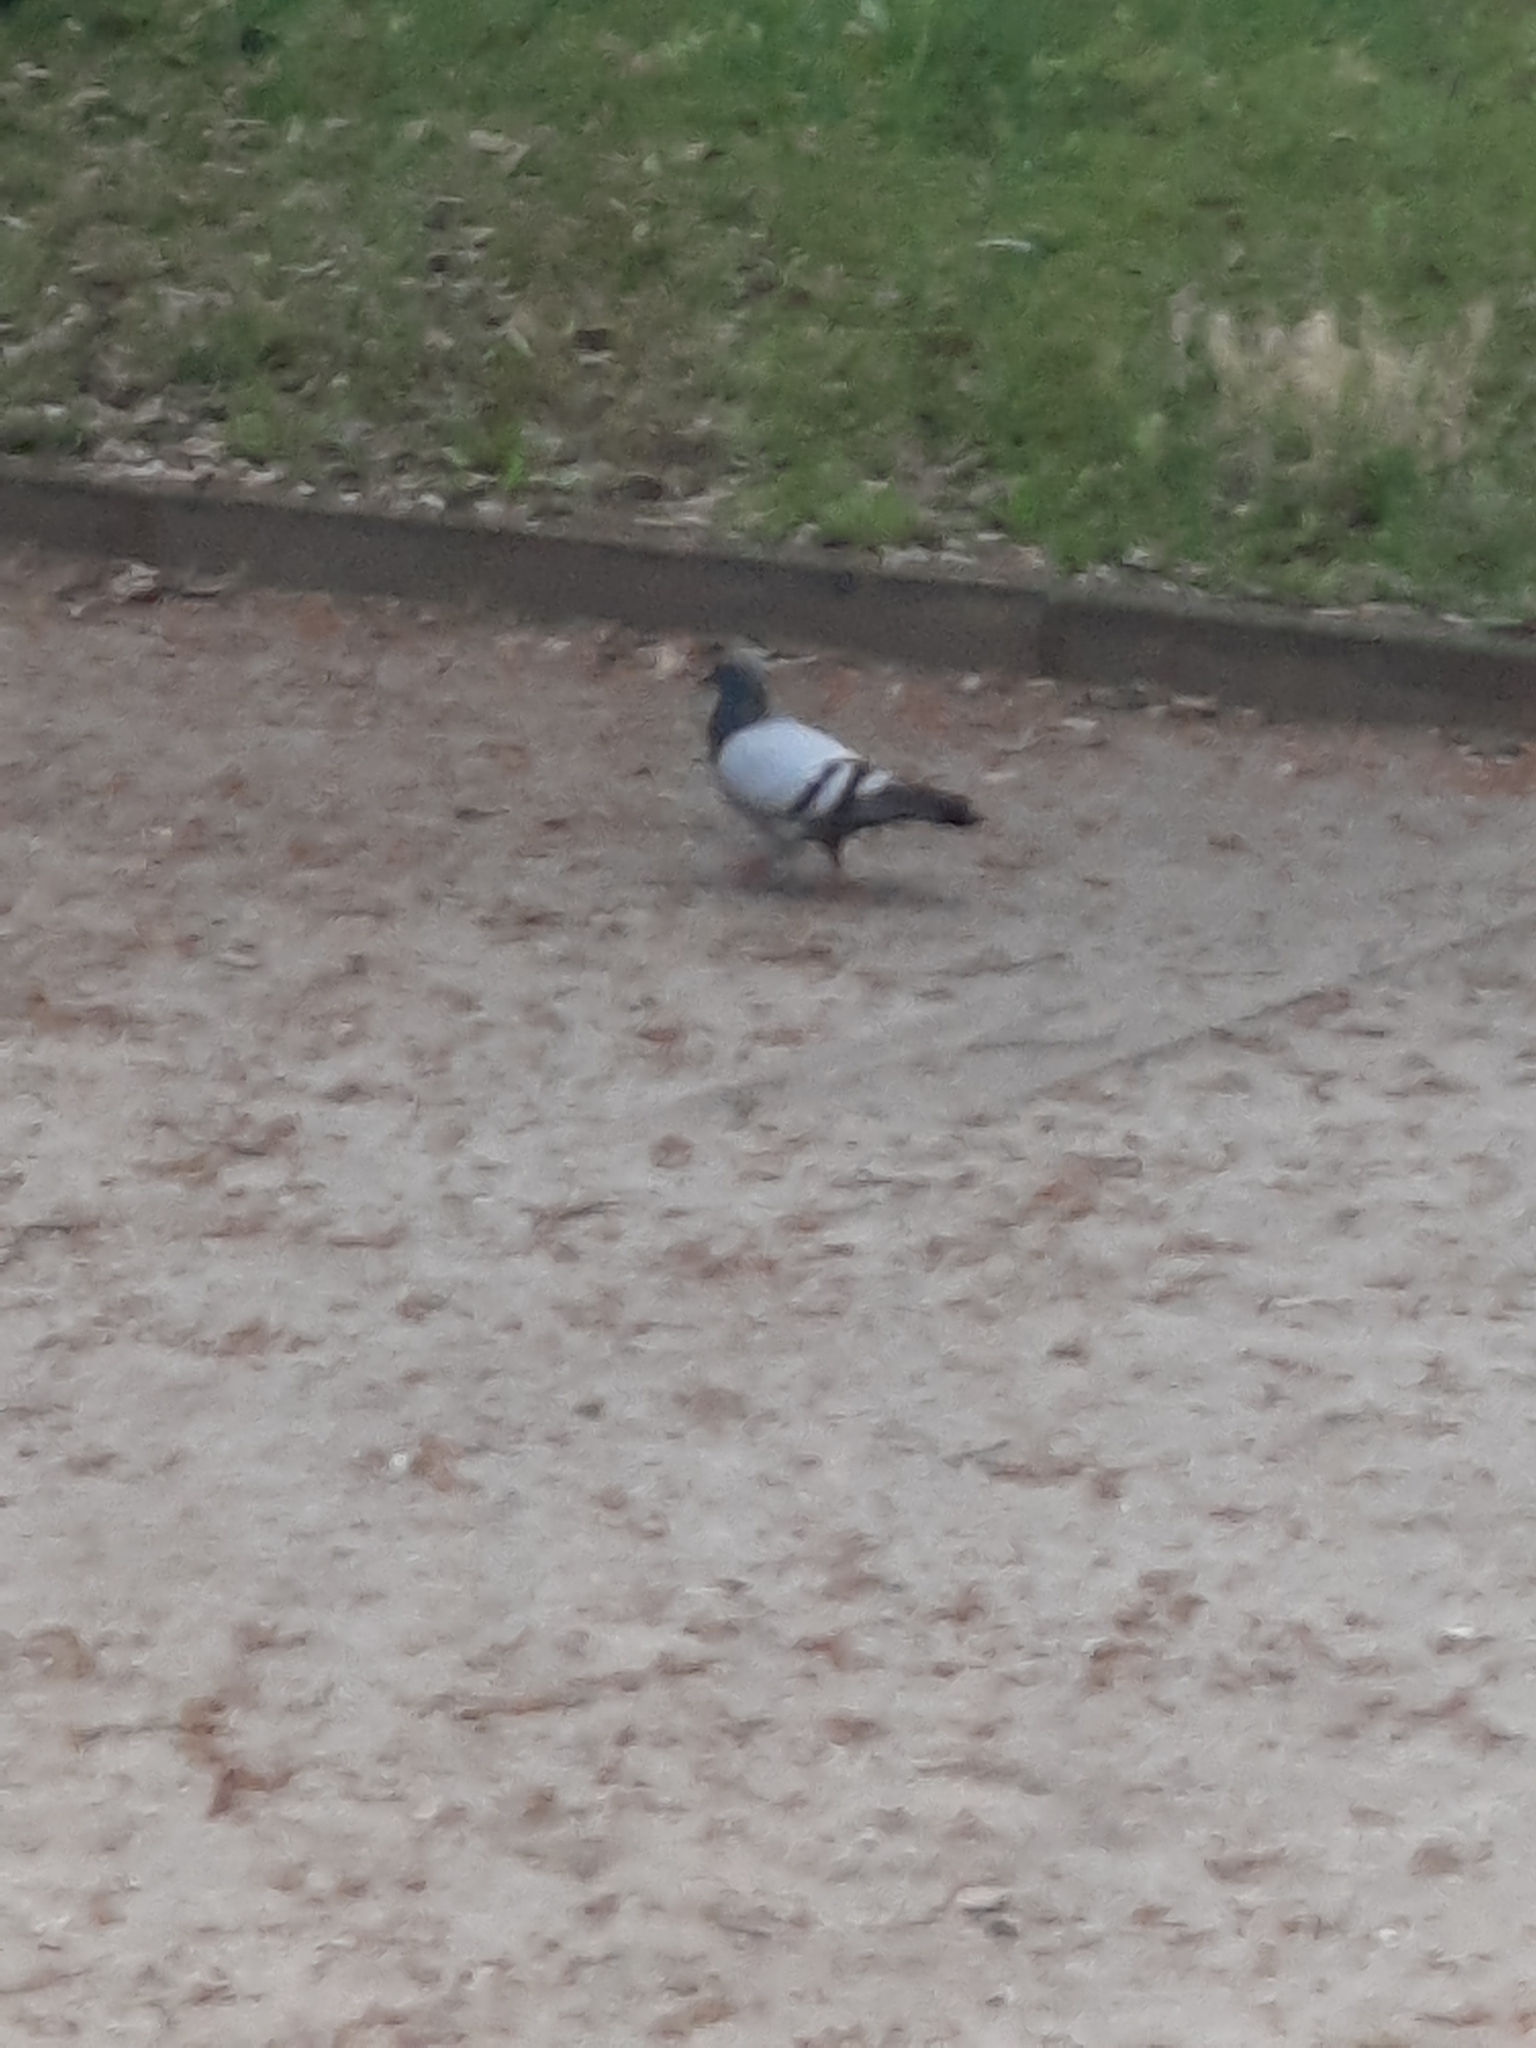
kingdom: Animalia
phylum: Chordata
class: Aves
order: Columbiformes
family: Columbidae
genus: Columba
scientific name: Columba livia
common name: Rock pigeon
